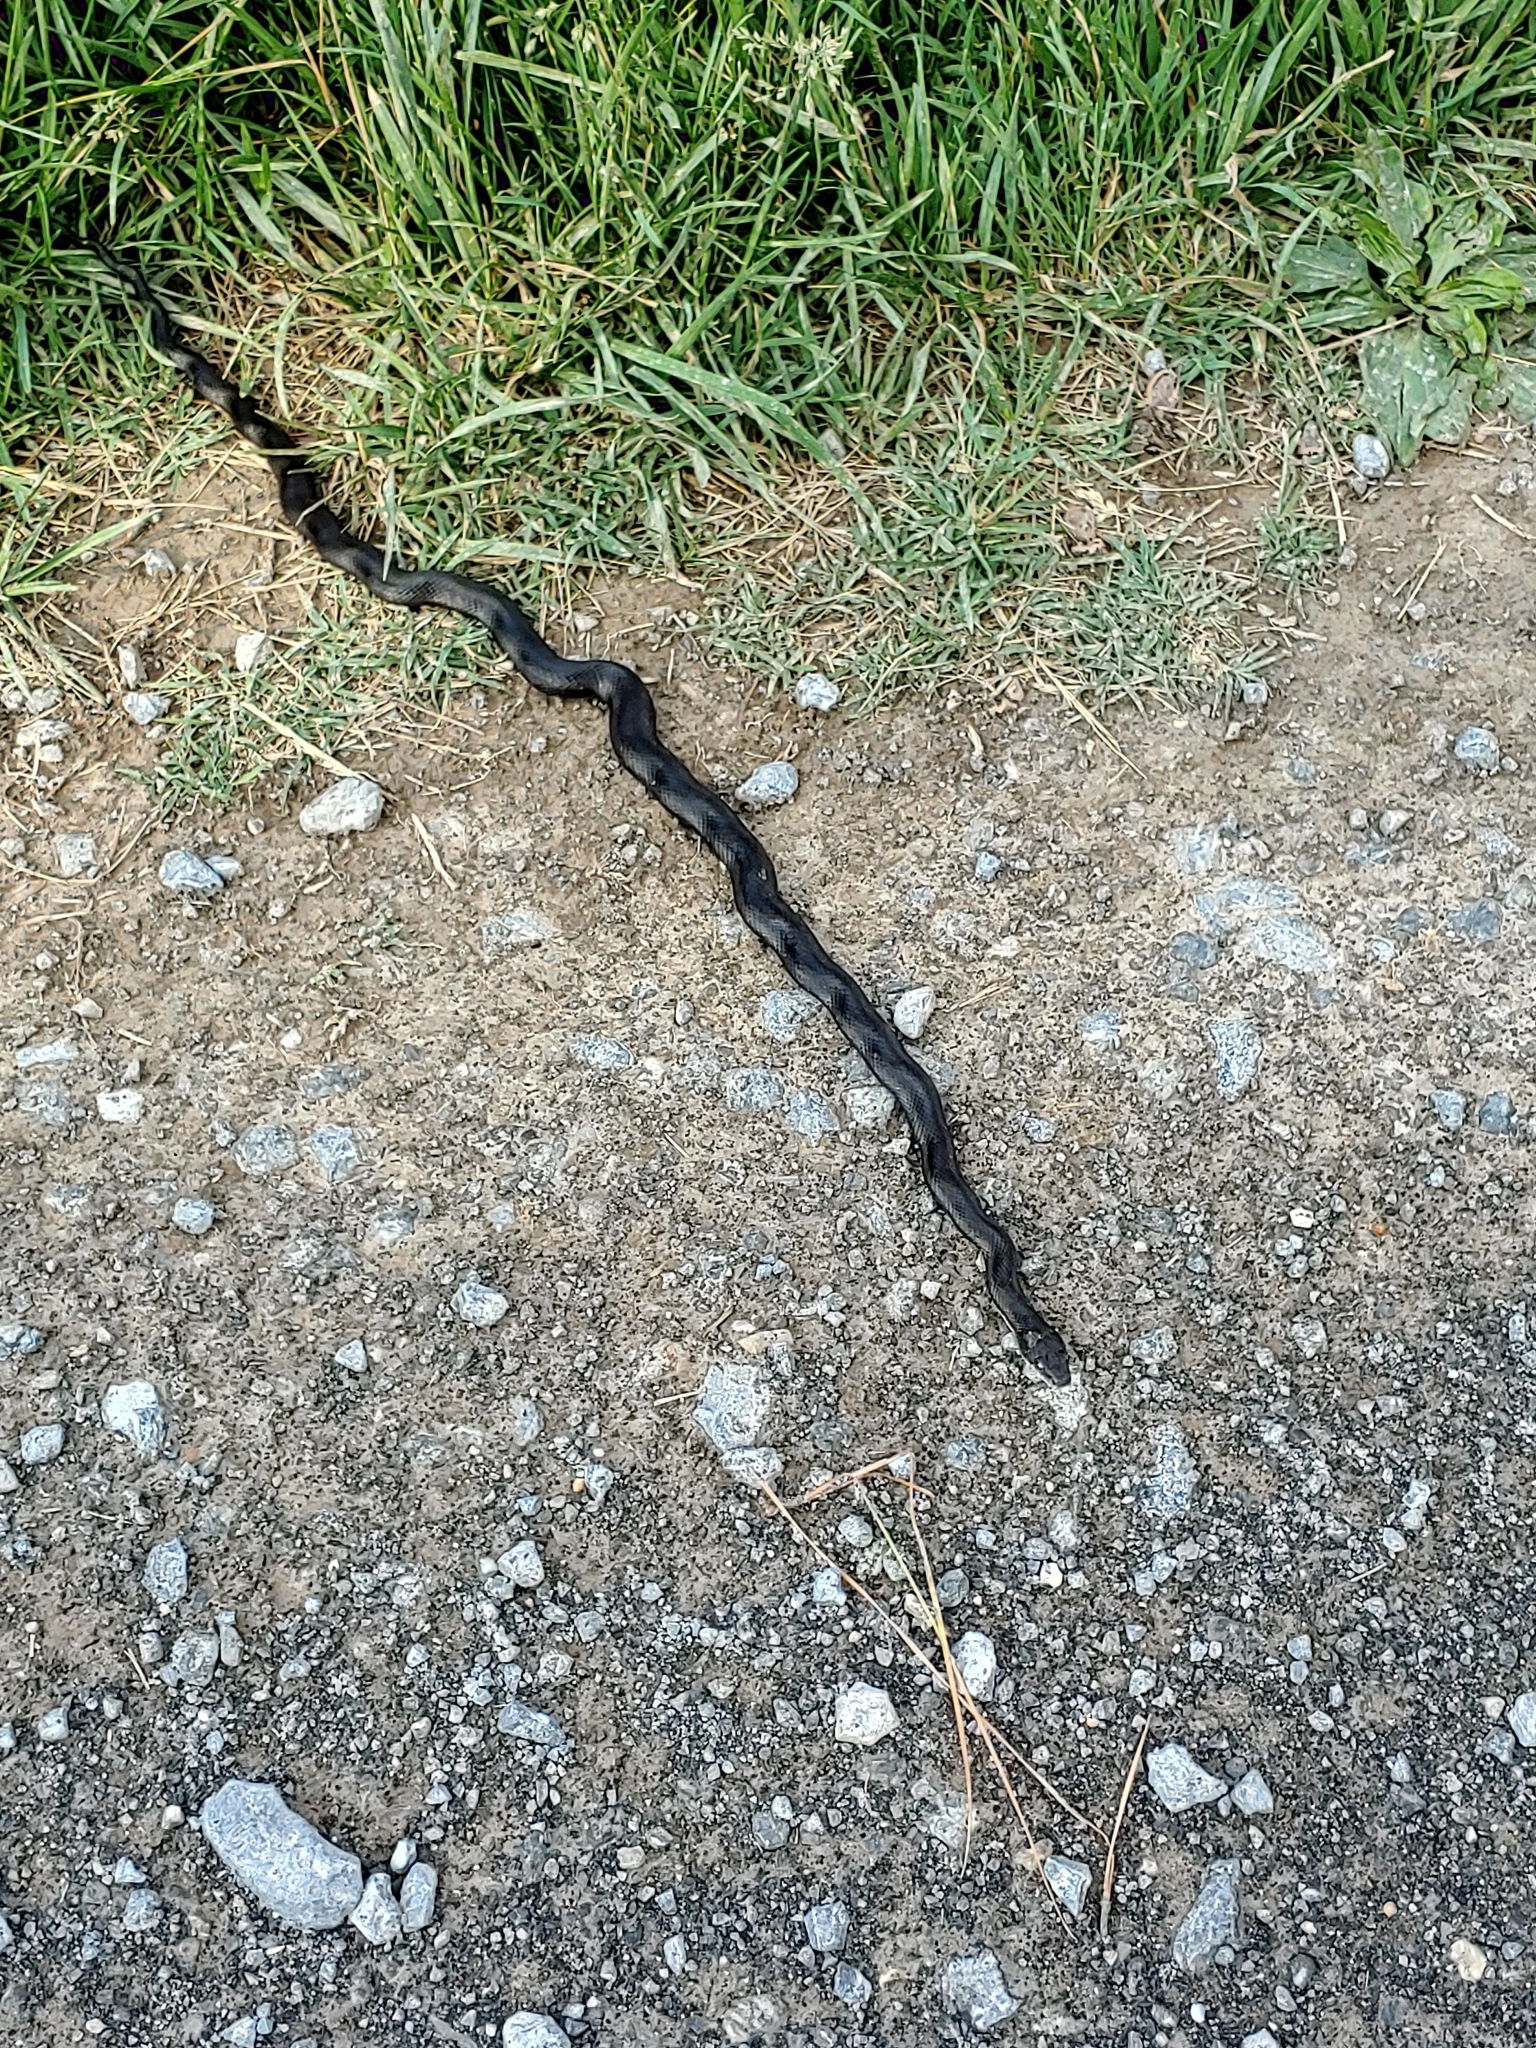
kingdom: Animalia
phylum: Chordata
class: Squamata
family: Colubridae
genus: Pantherophis
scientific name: Pantherophis alleghaniensis
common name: Eastern rat snake
